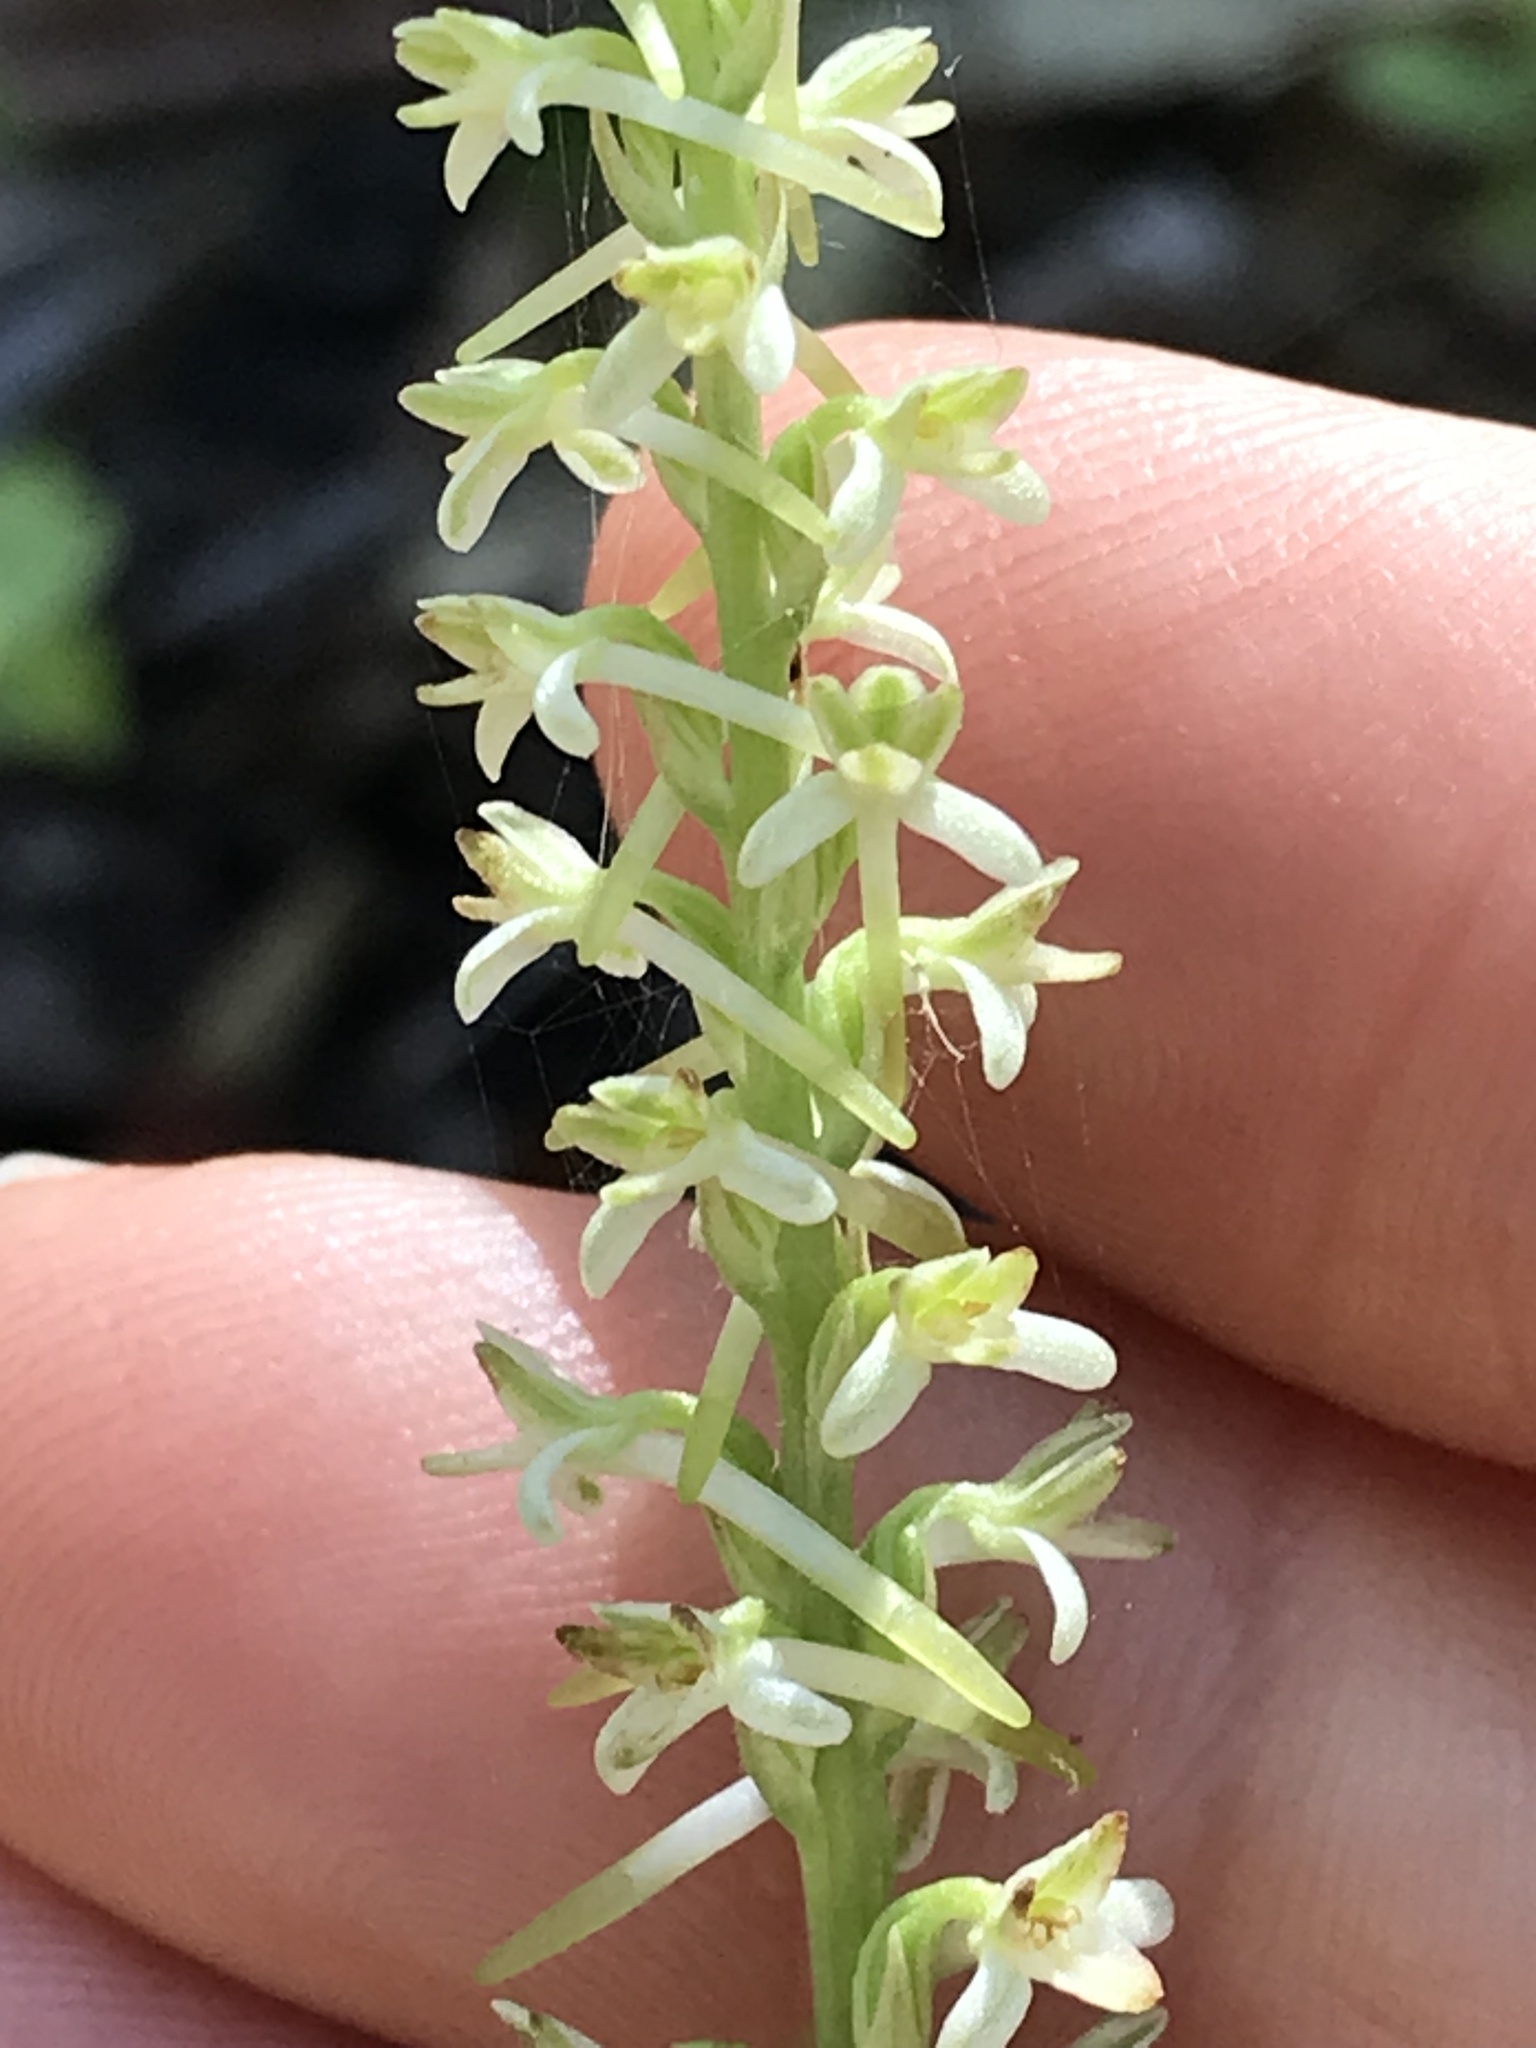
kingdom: Plantae
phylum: Tracheophyta
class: Liliopsida
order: Asparagales
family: Orchidaceae
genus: Platanthera
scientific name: Platanthera transversa
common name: Royal rein orchid
